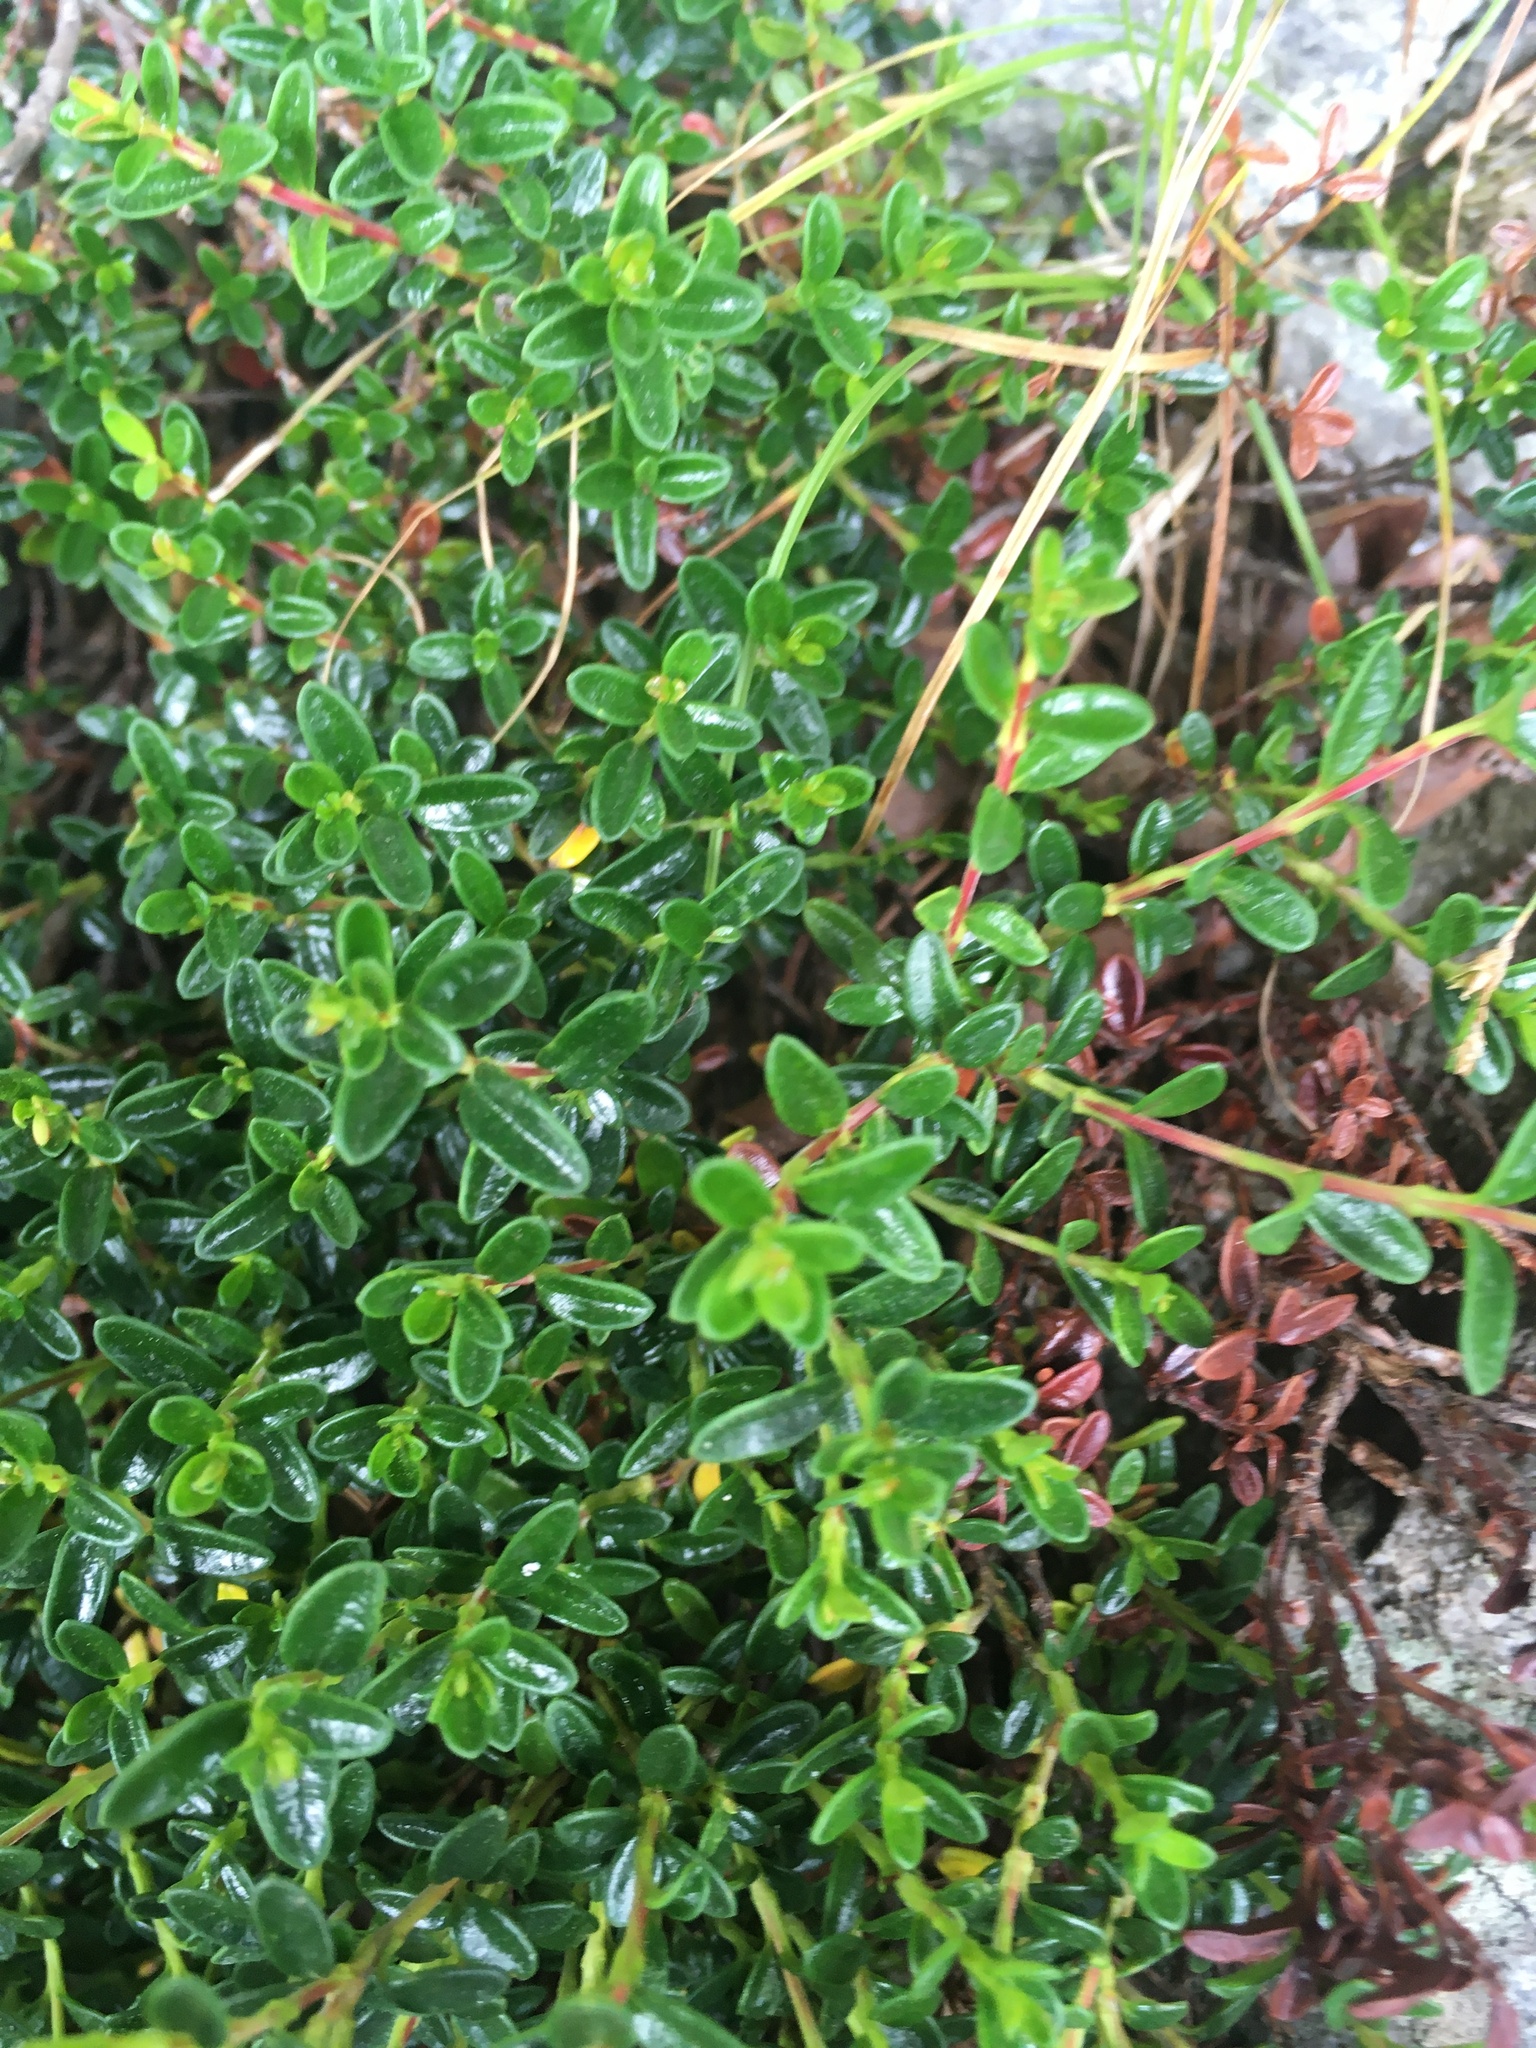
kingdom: Plantae
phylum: Tracheophyta
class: Magnoliopsida
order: Ericales
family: Ericaceae
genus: Kalmia
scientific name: Kalmia buxifolia
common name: Sandmyrtle
